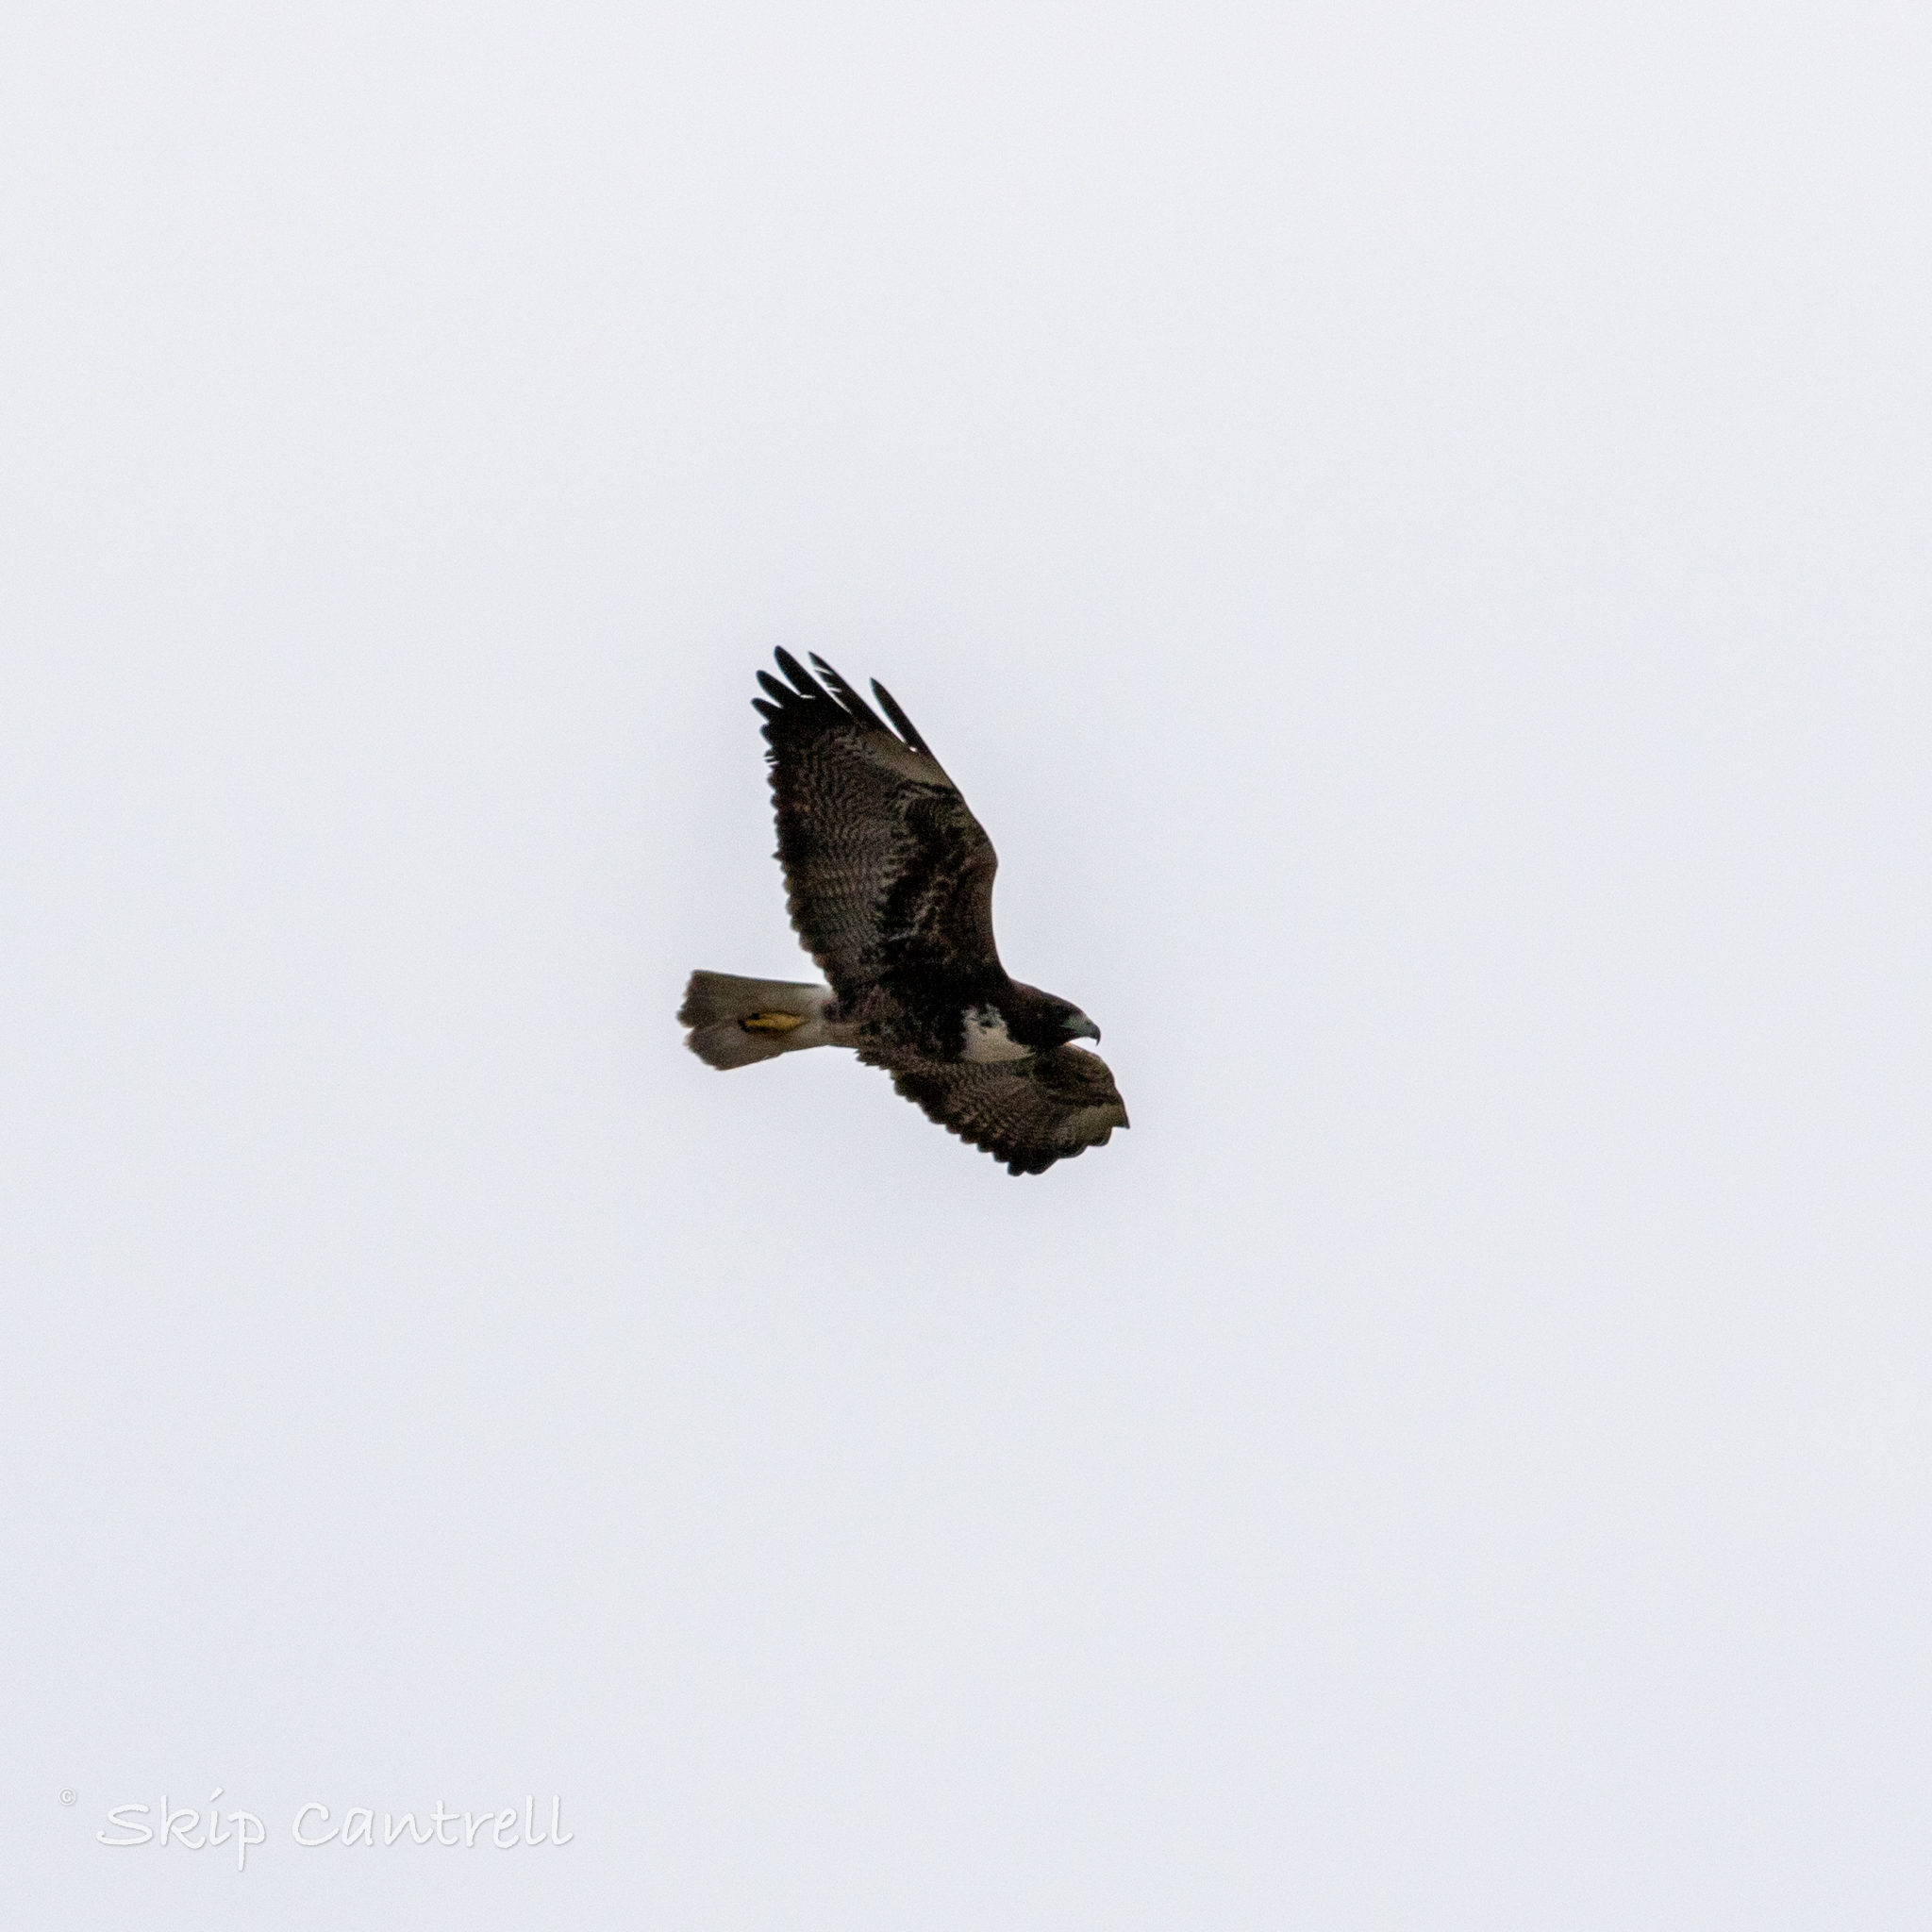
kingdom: Animalia
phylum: Chordata
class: Aves
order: Accipitriformes
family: Accipitridae
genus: Buteo
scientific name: Buteo albicaudatus
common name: White-tailed hawk
